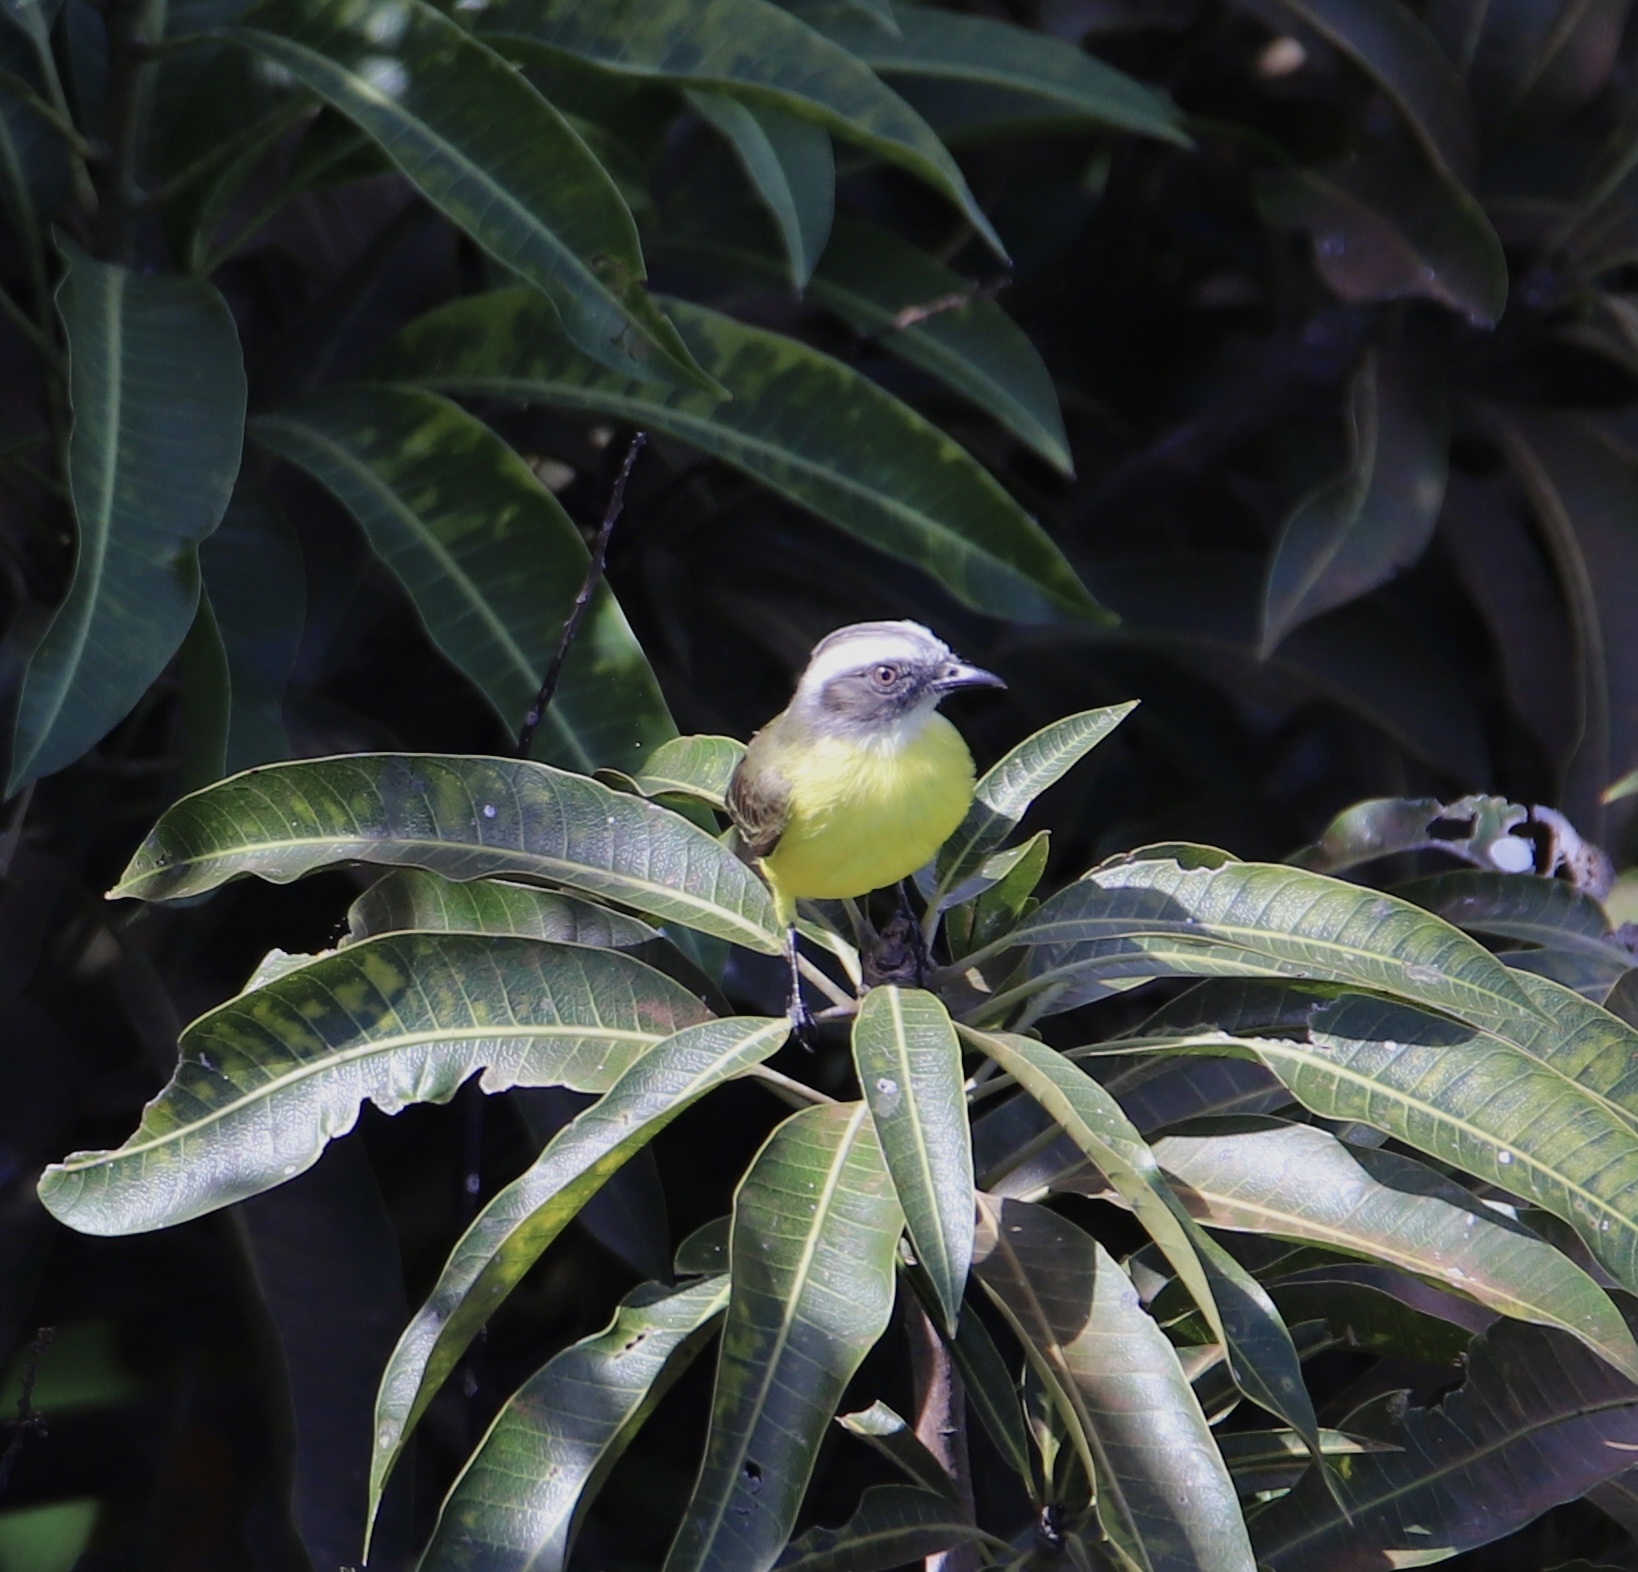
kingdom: Animalia
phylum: Chordata
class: Aves
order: Passeriformes
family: Tyrannidae
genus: Myiozetetes
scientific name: Myiozetetes similis
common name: Social flycatcher
